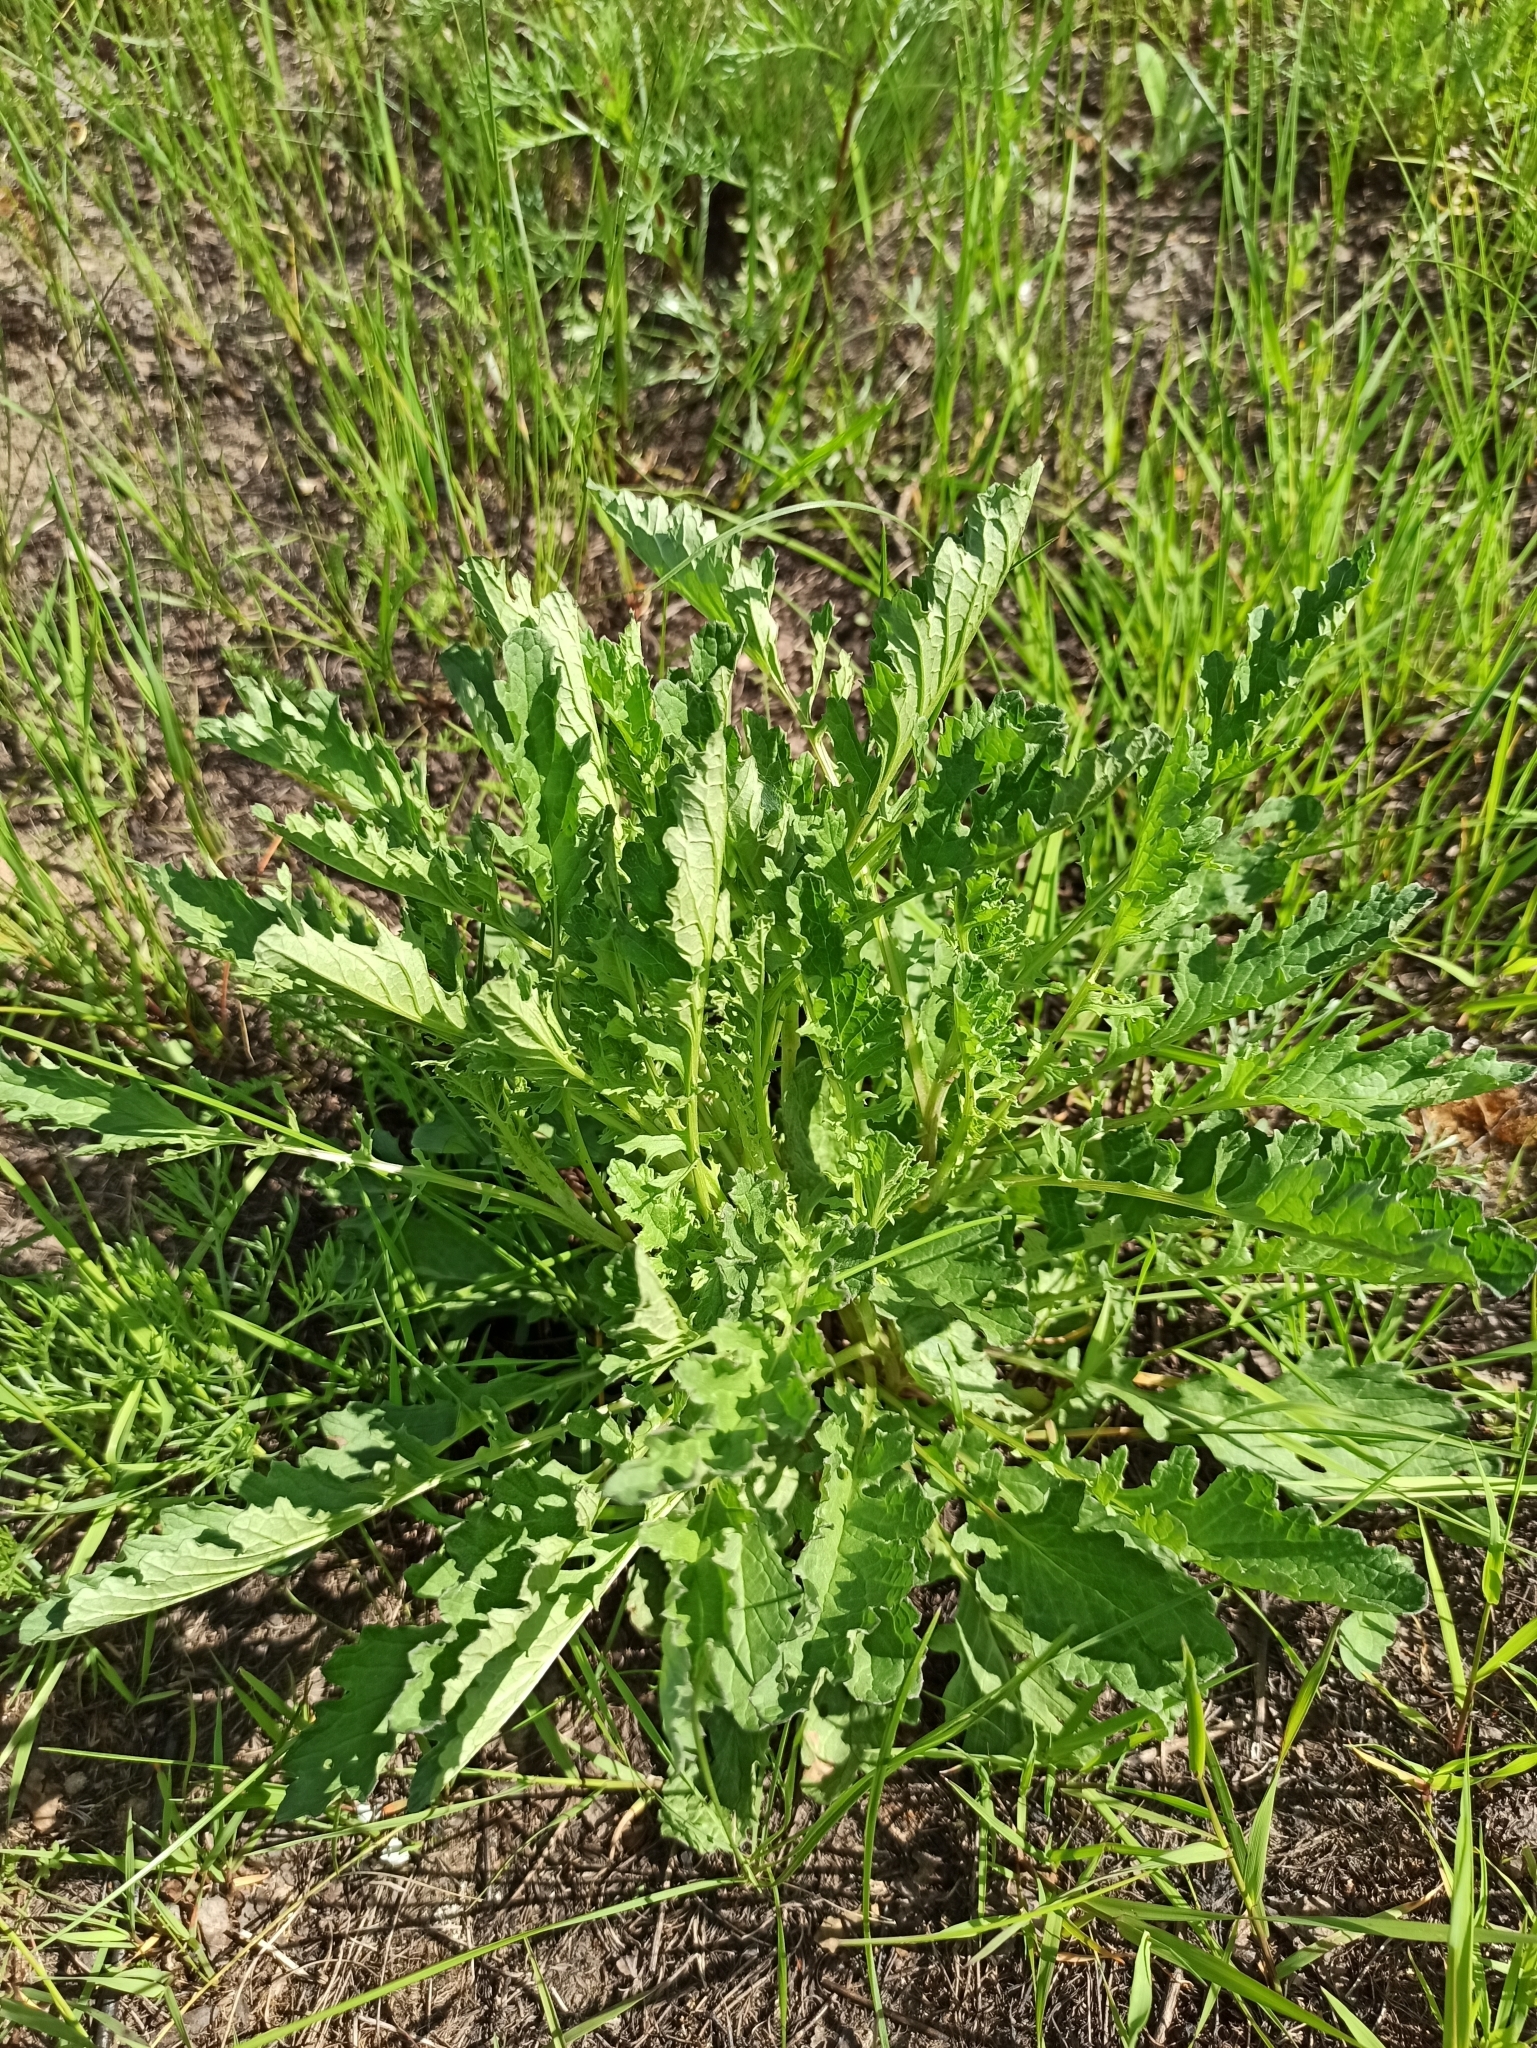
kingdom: Plantae
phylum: Tracheophyta
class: Magnoliopsida
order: Asterales
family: Asteraceae
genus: Jacobaea
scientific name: Jacobaea vulgaris
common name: Stinking willie
